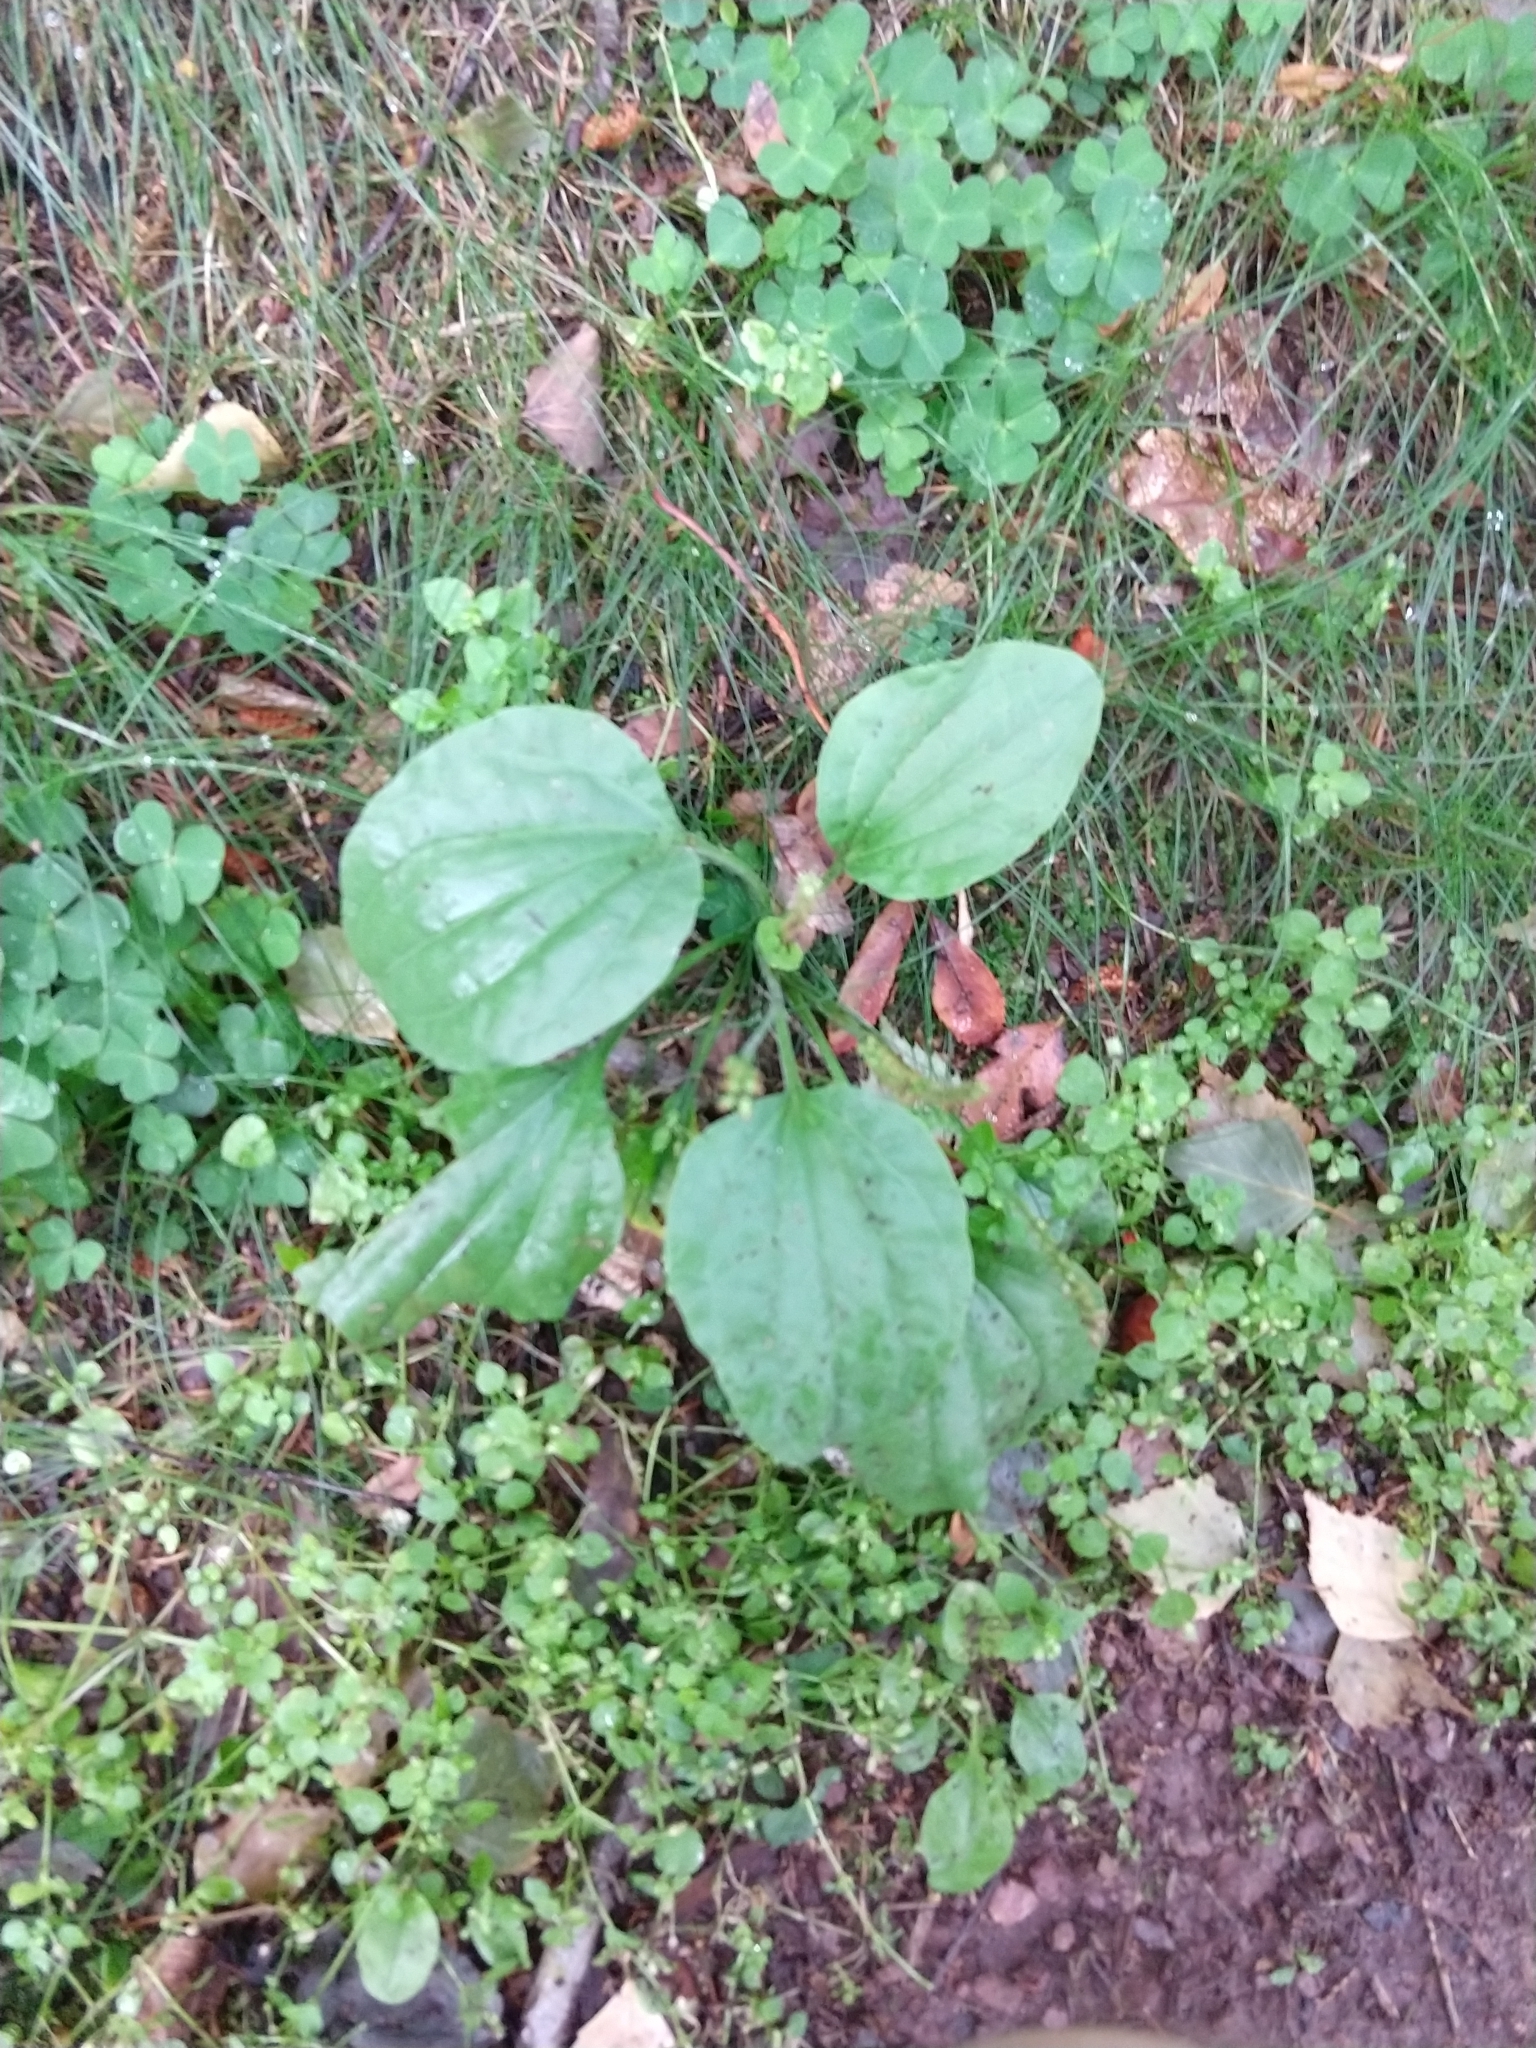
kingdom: Plantae
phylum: Tracheophyta
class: Magnoliopsida
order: Lamiales
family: Plantaginaceae
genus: Plantago
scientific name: Plantago major
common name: Common plantain
